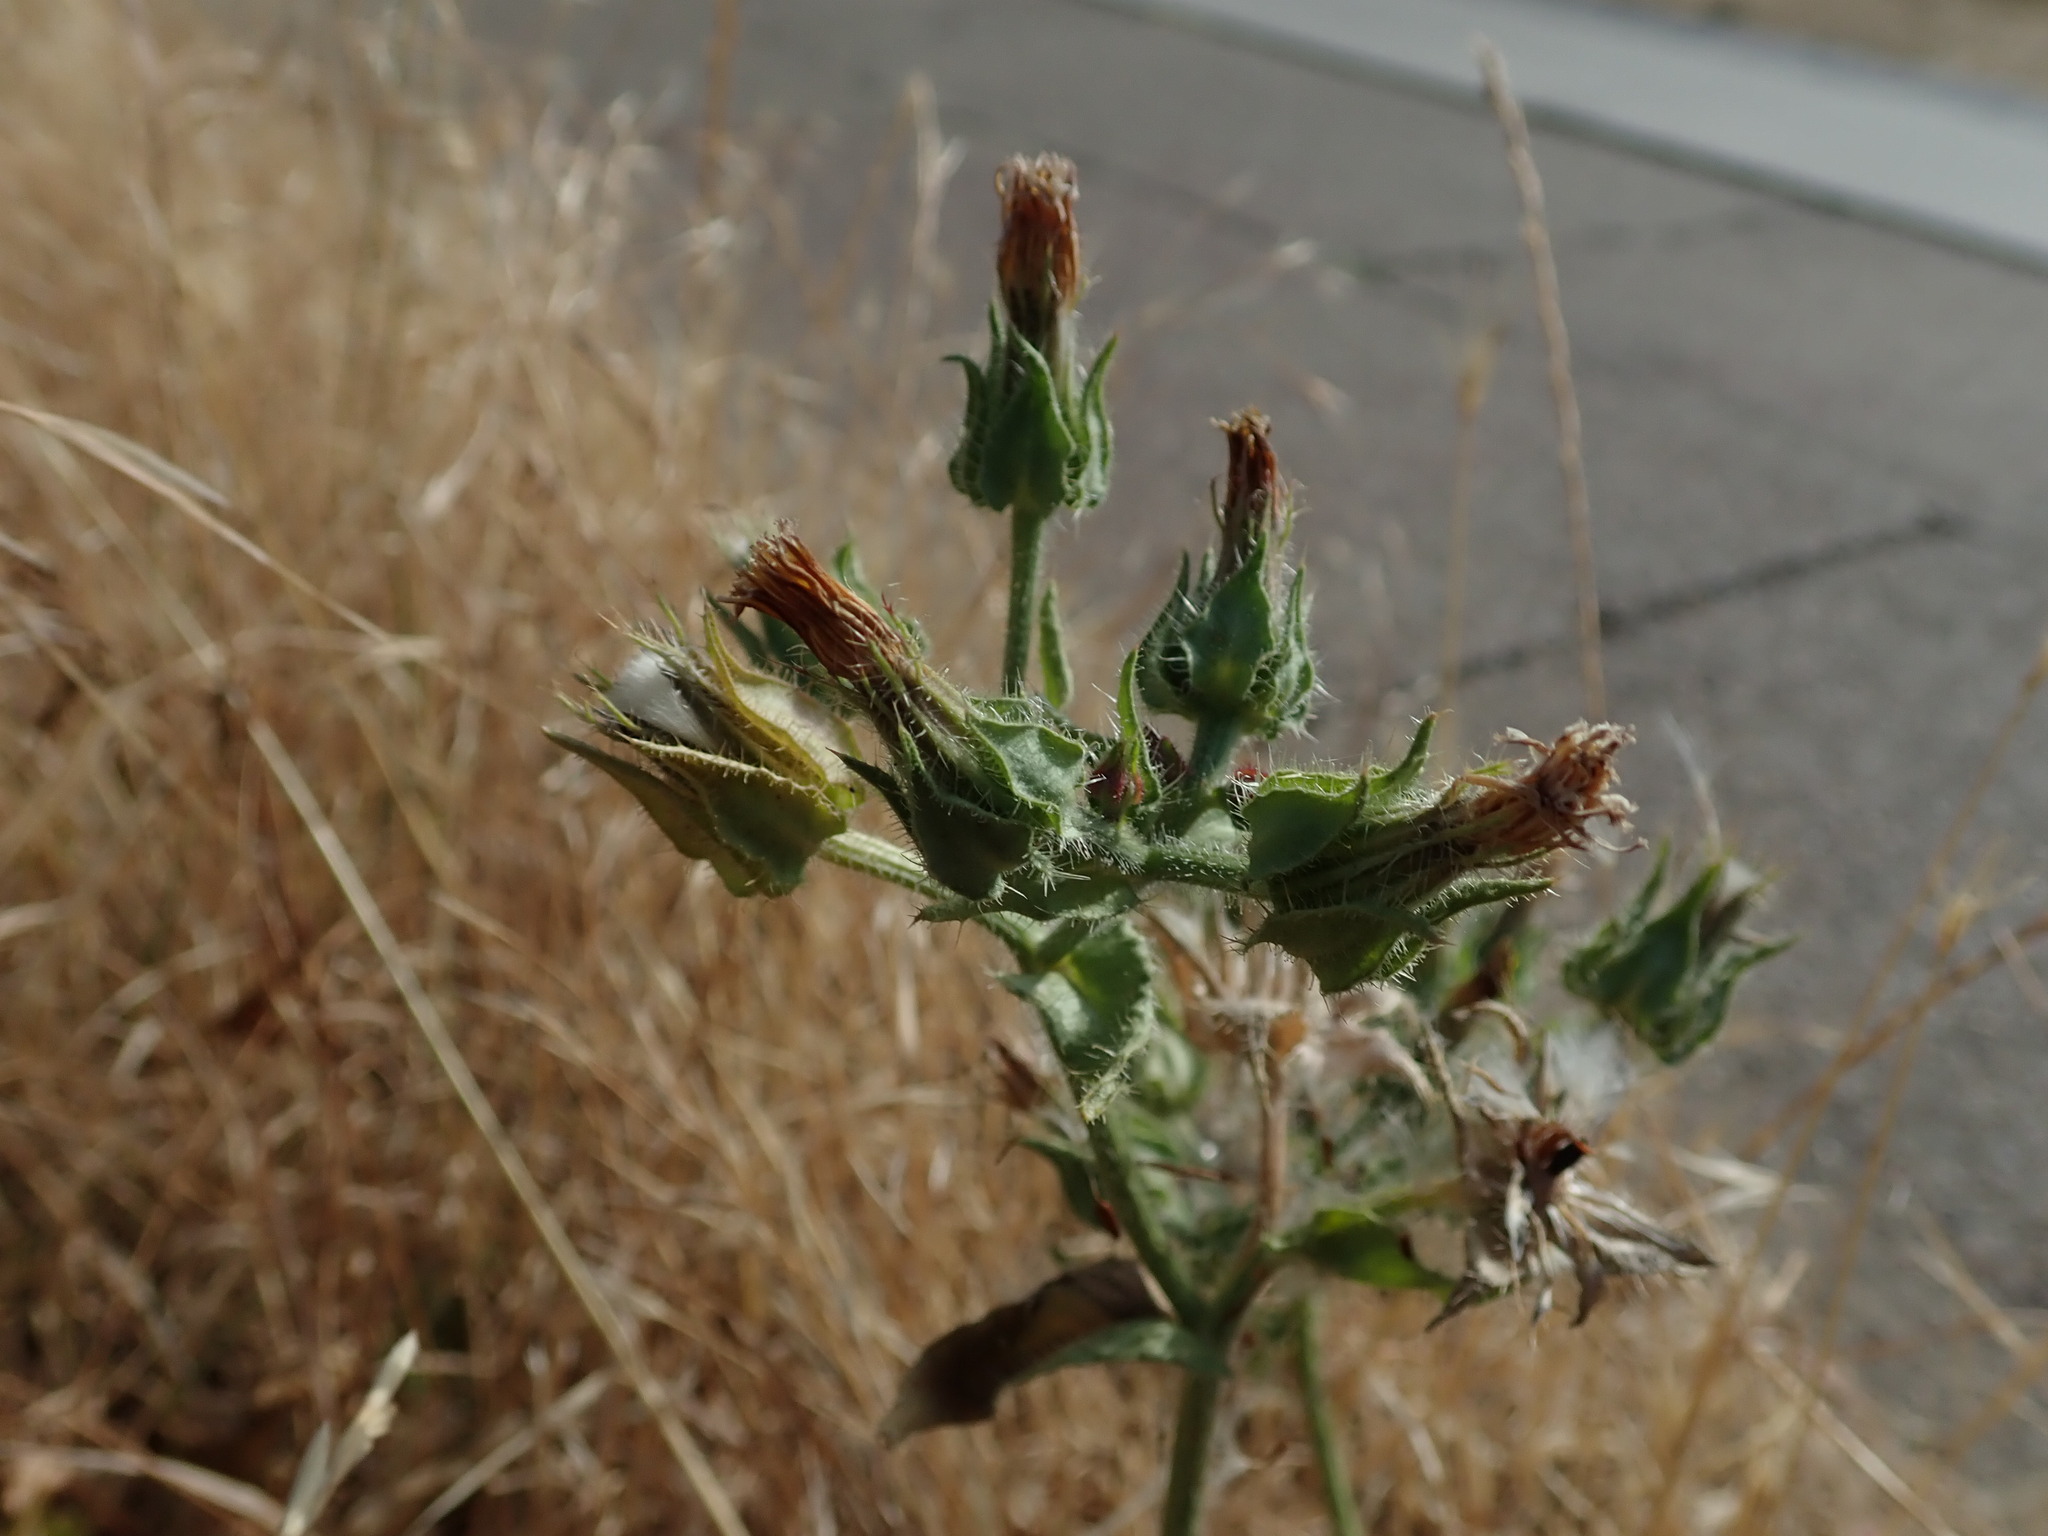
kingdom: Plantae
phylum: Tracheophyta
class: Magnoliopsida
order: Asterales
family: Asteraceae
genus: Helminthotheca
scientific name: Helminthotheca echioides
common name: Ox-tongue
